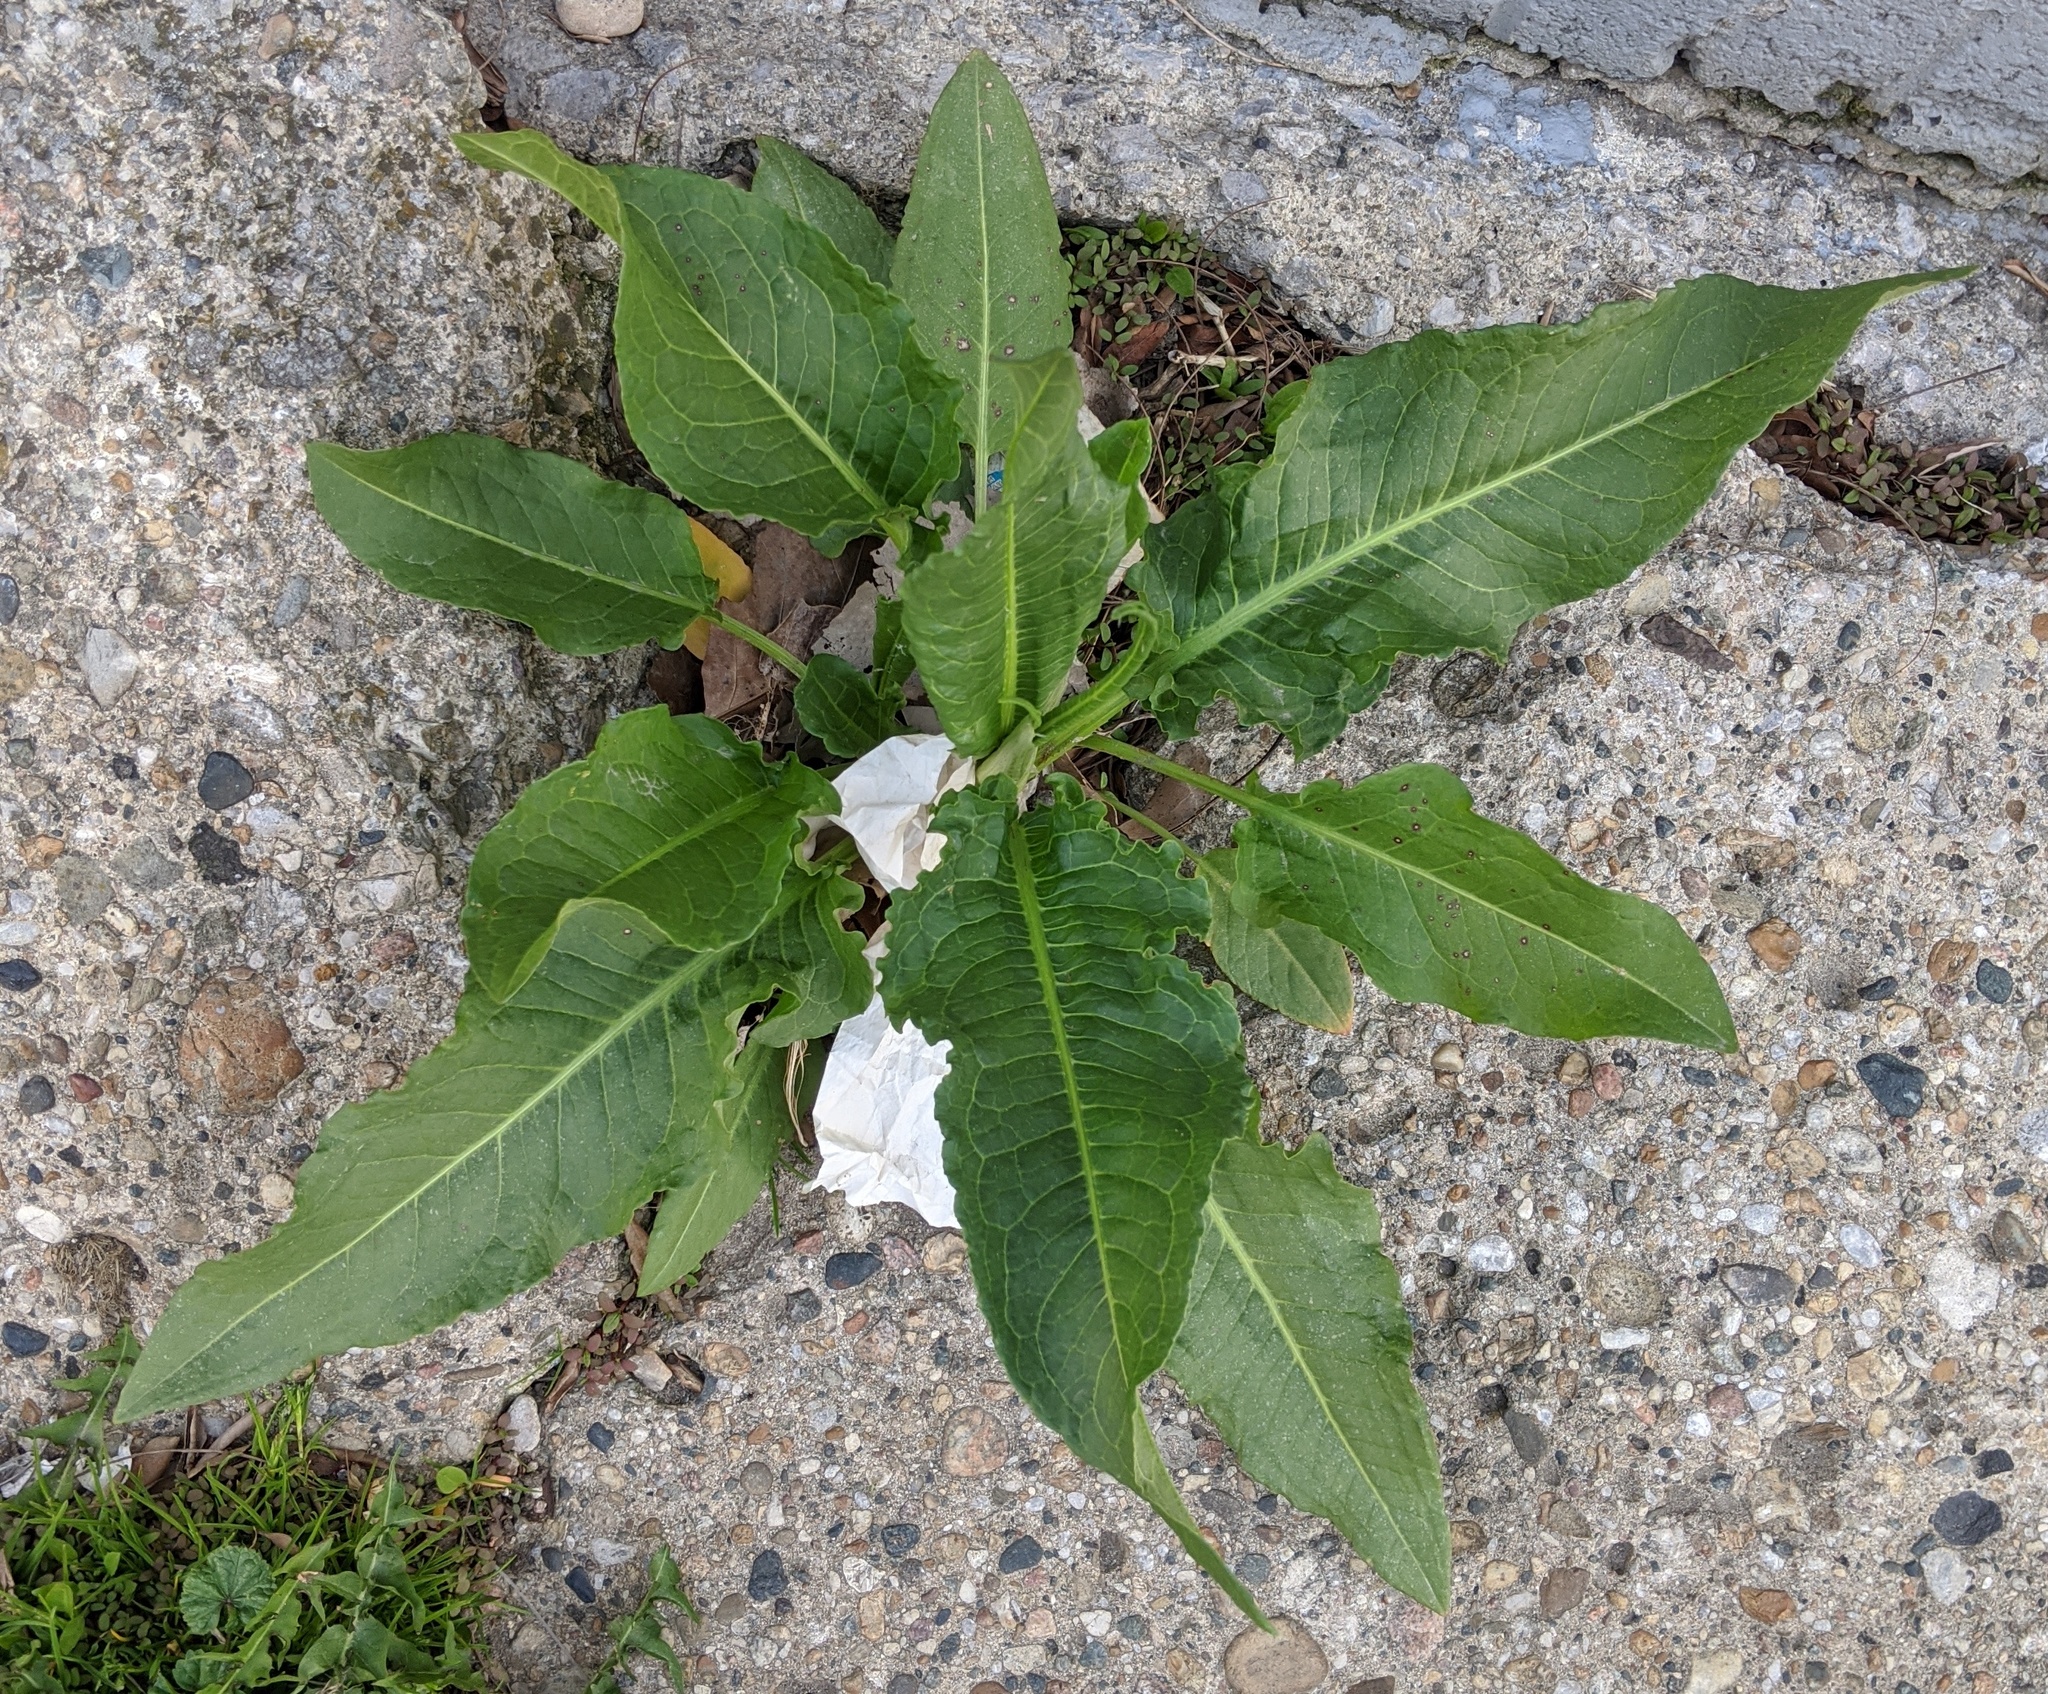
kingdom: Plantae
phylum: Tracheophyta
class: Magnoliopsida
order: Caryophyllales
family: Polygonaceae
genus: Rumex
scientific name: Rumex crispus
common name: Curled dock
